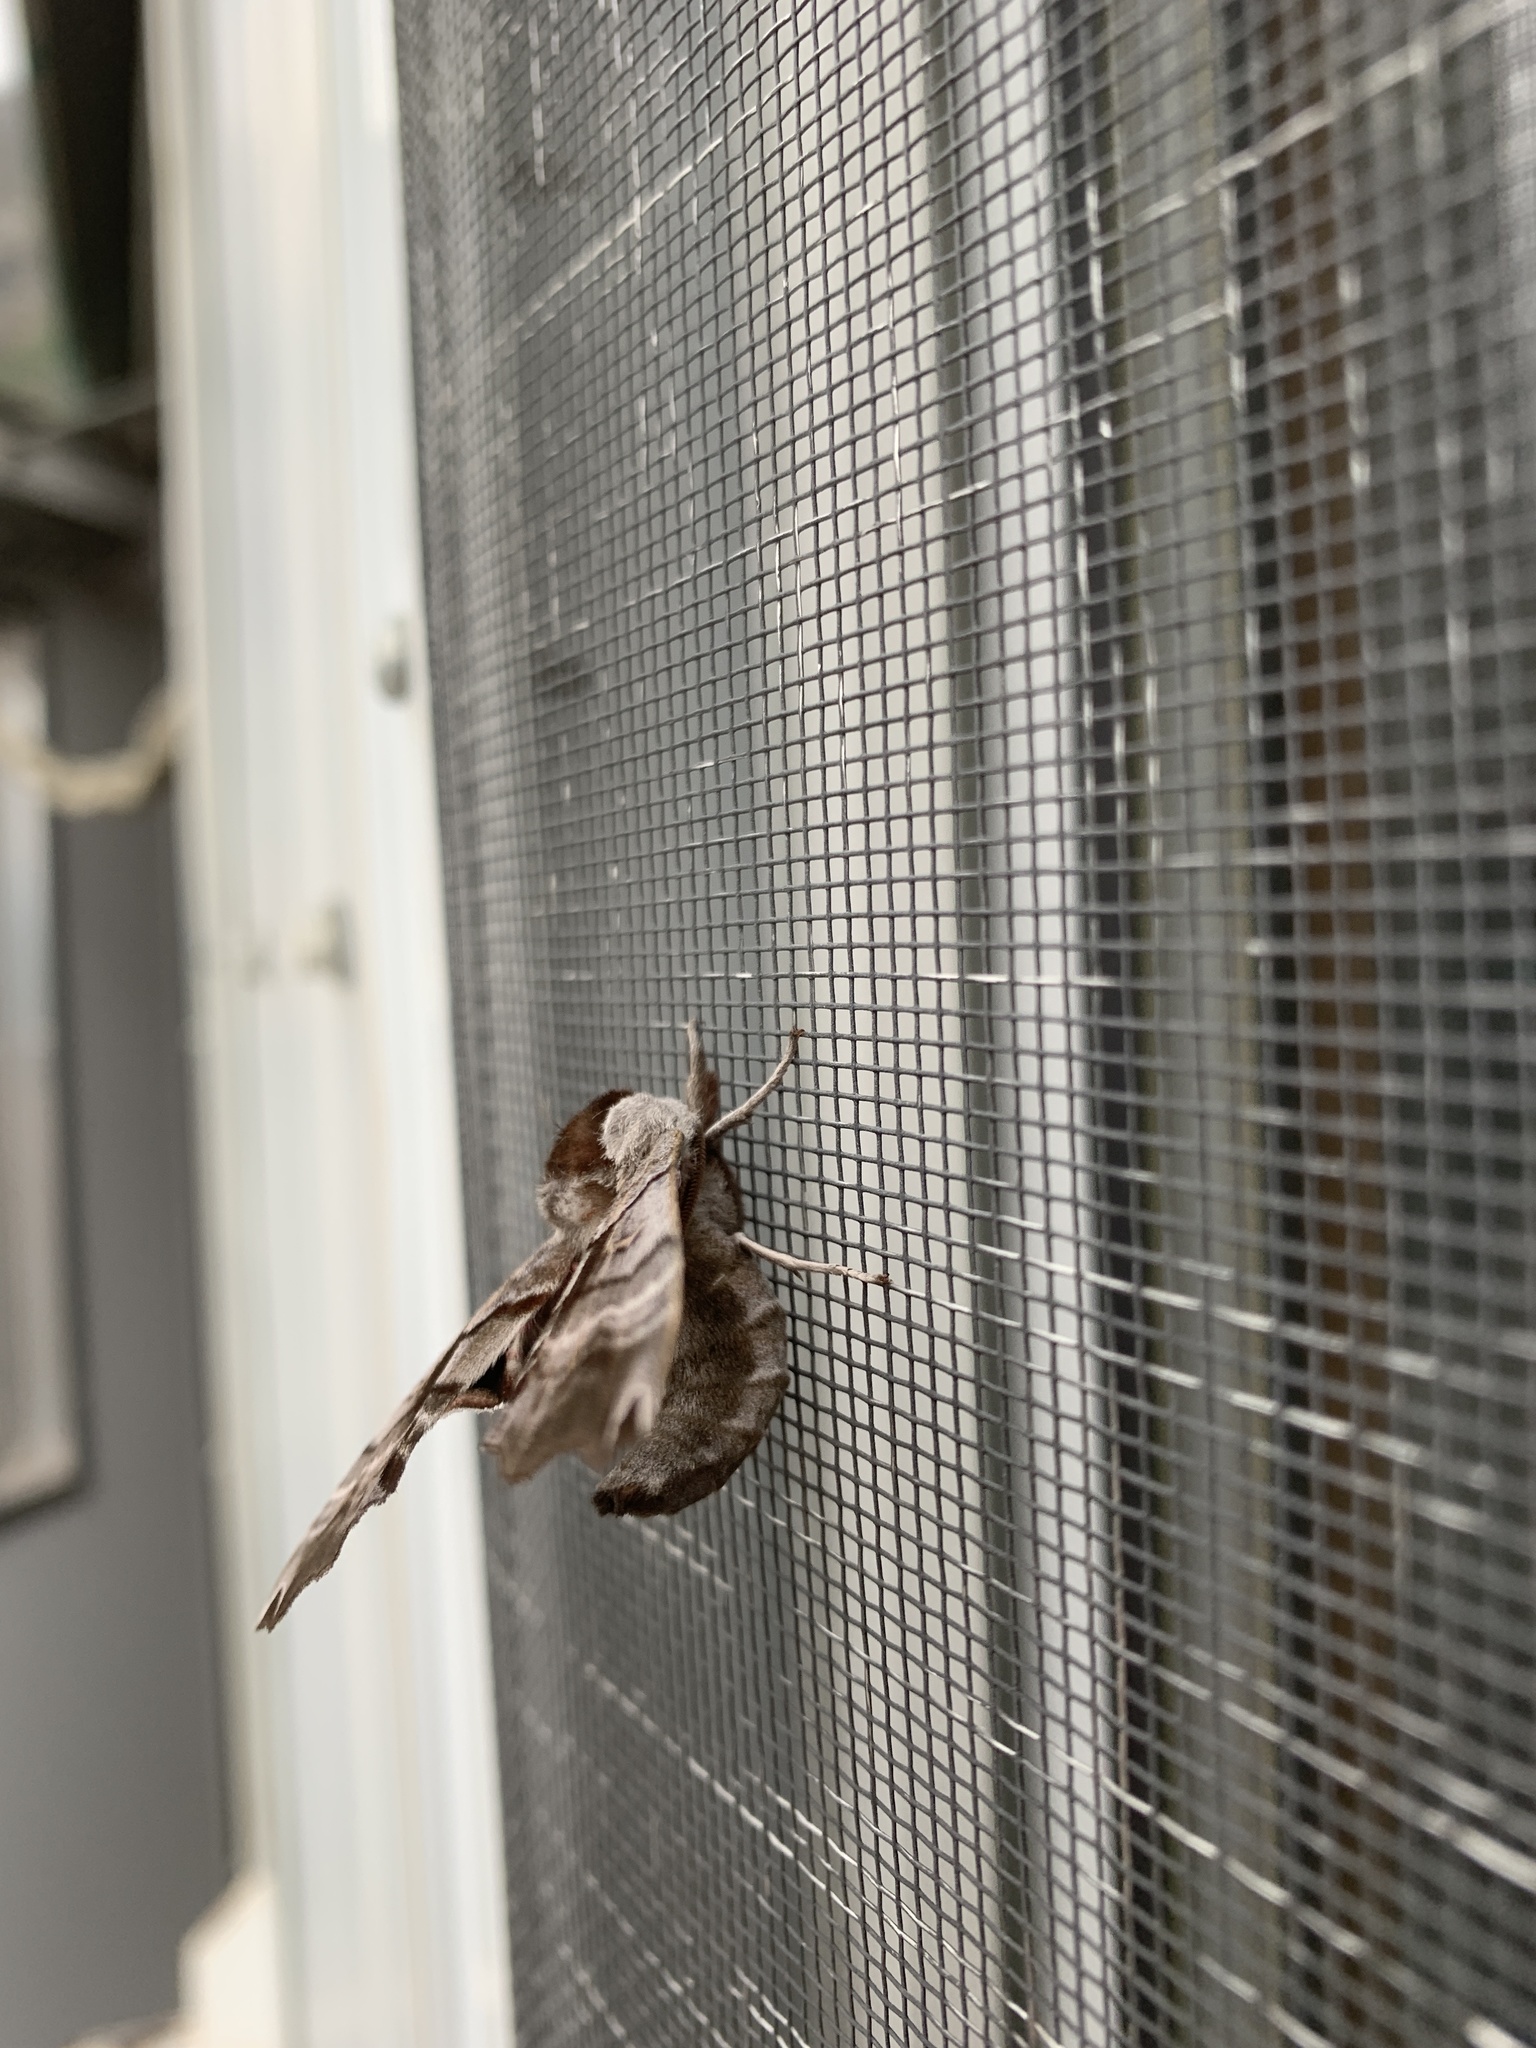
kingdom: Animalia
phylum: Arthropoda
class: Insecta
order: Lepidoptera
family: Sphingidae
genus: Smerinthus
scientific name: Smerinthus jamaicensis
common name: Twin spotted sphinx
